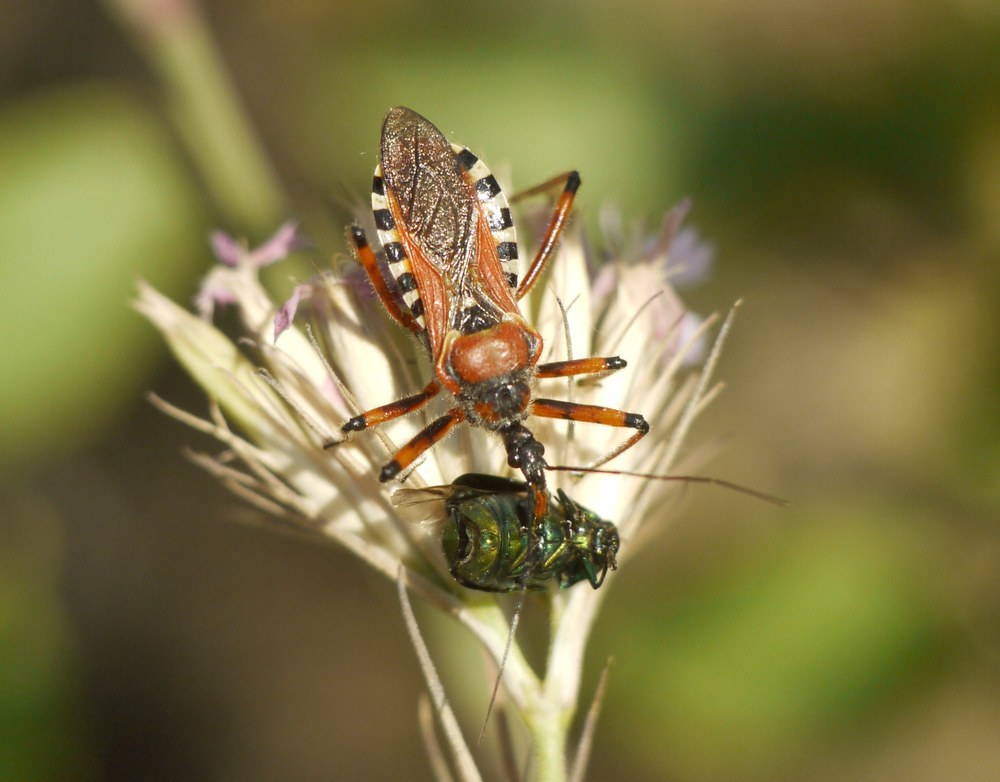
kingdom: Animalia
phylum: Arthropoda
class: Insecta
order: Hemiptera
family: Reduviidae
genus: Rhynocoris
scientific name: Rhynocoris iracundus
